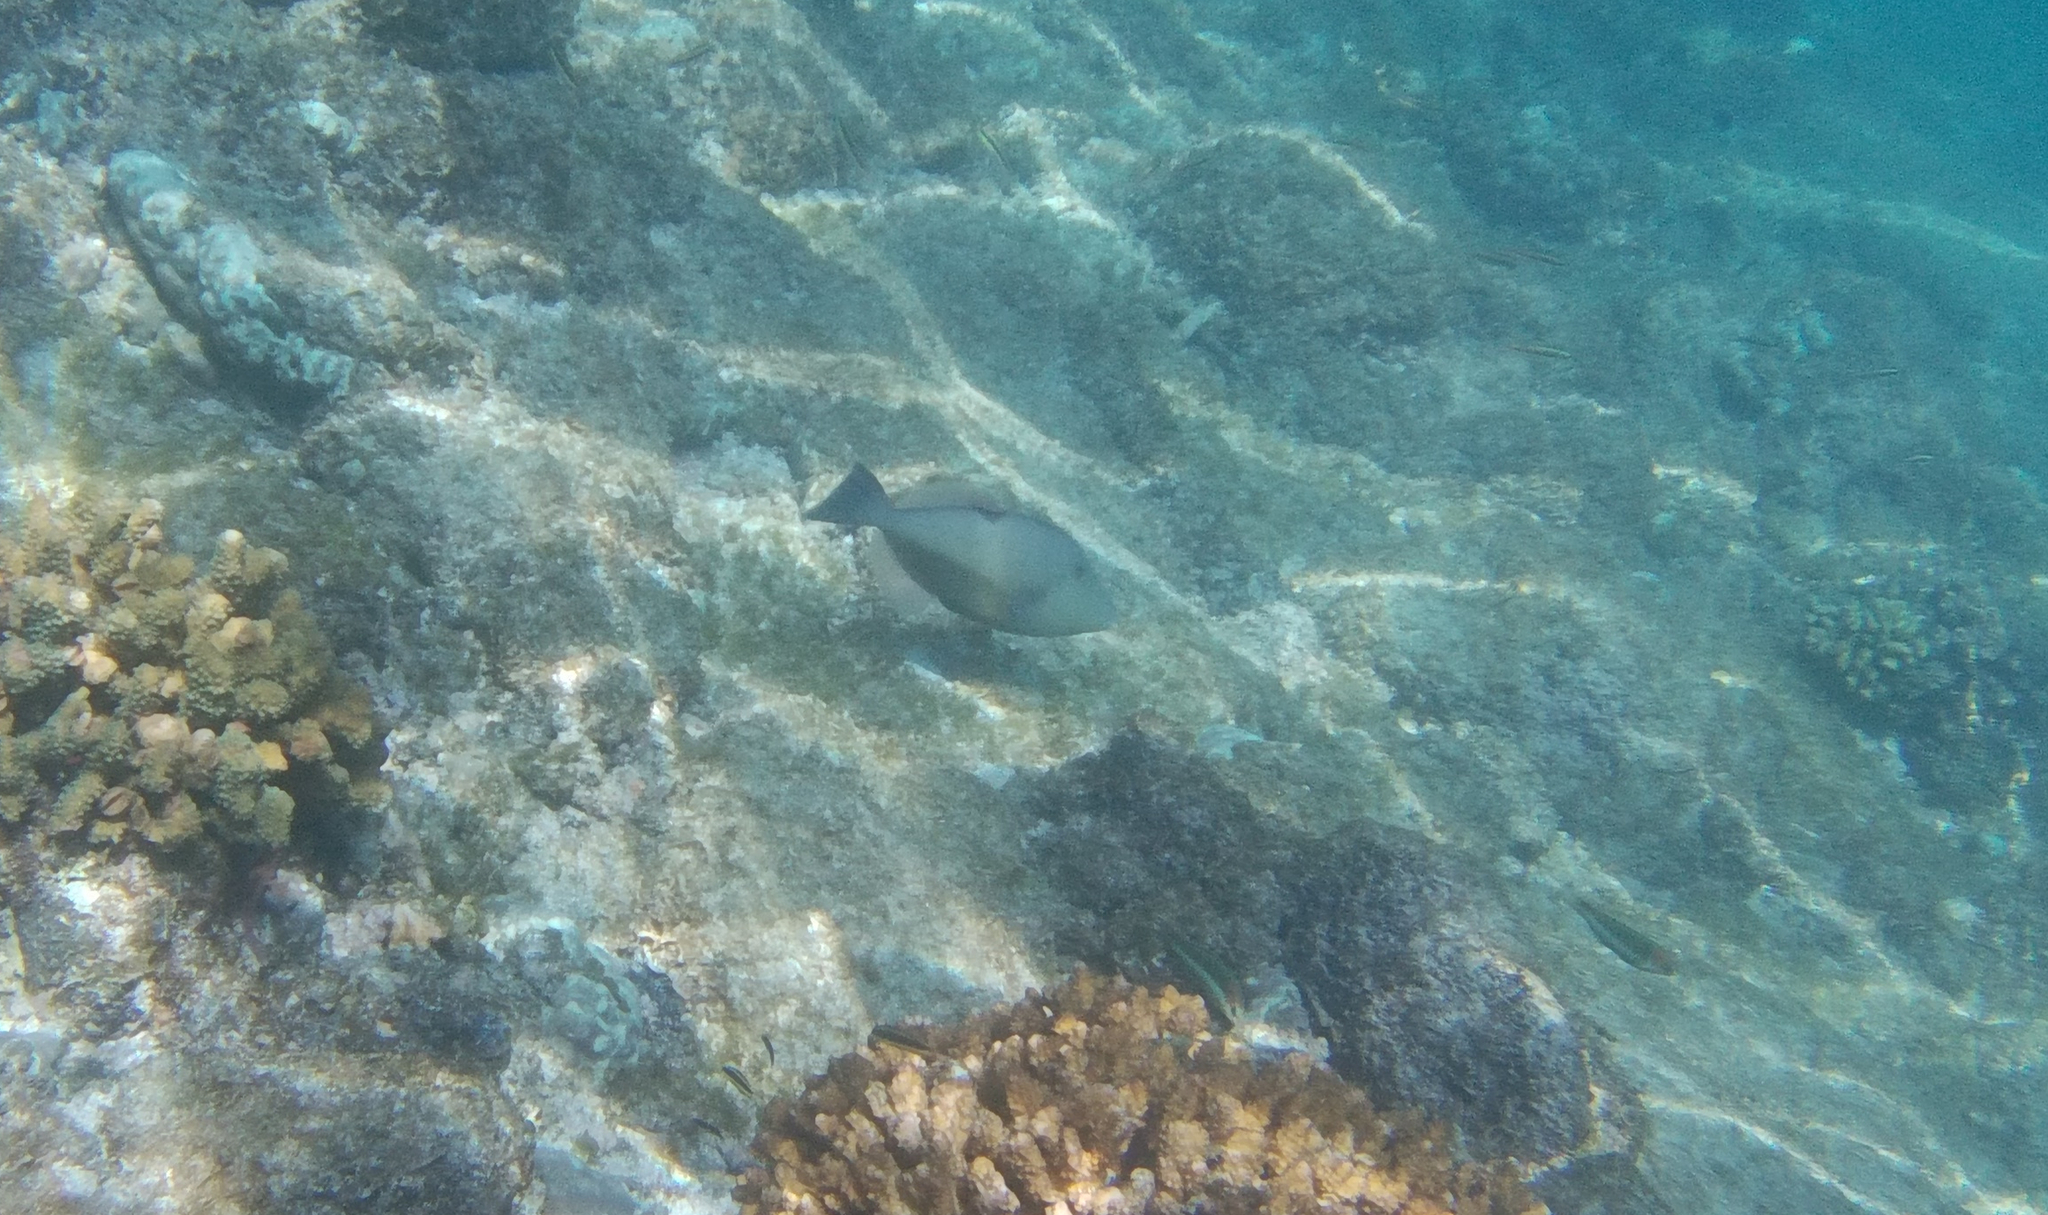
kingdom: Animalia
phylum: Chordata
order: Tetraodontiformes
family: Balistidae
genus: Sufflamen
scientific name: Sufflamen verres
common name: Orangeside triggerfish
